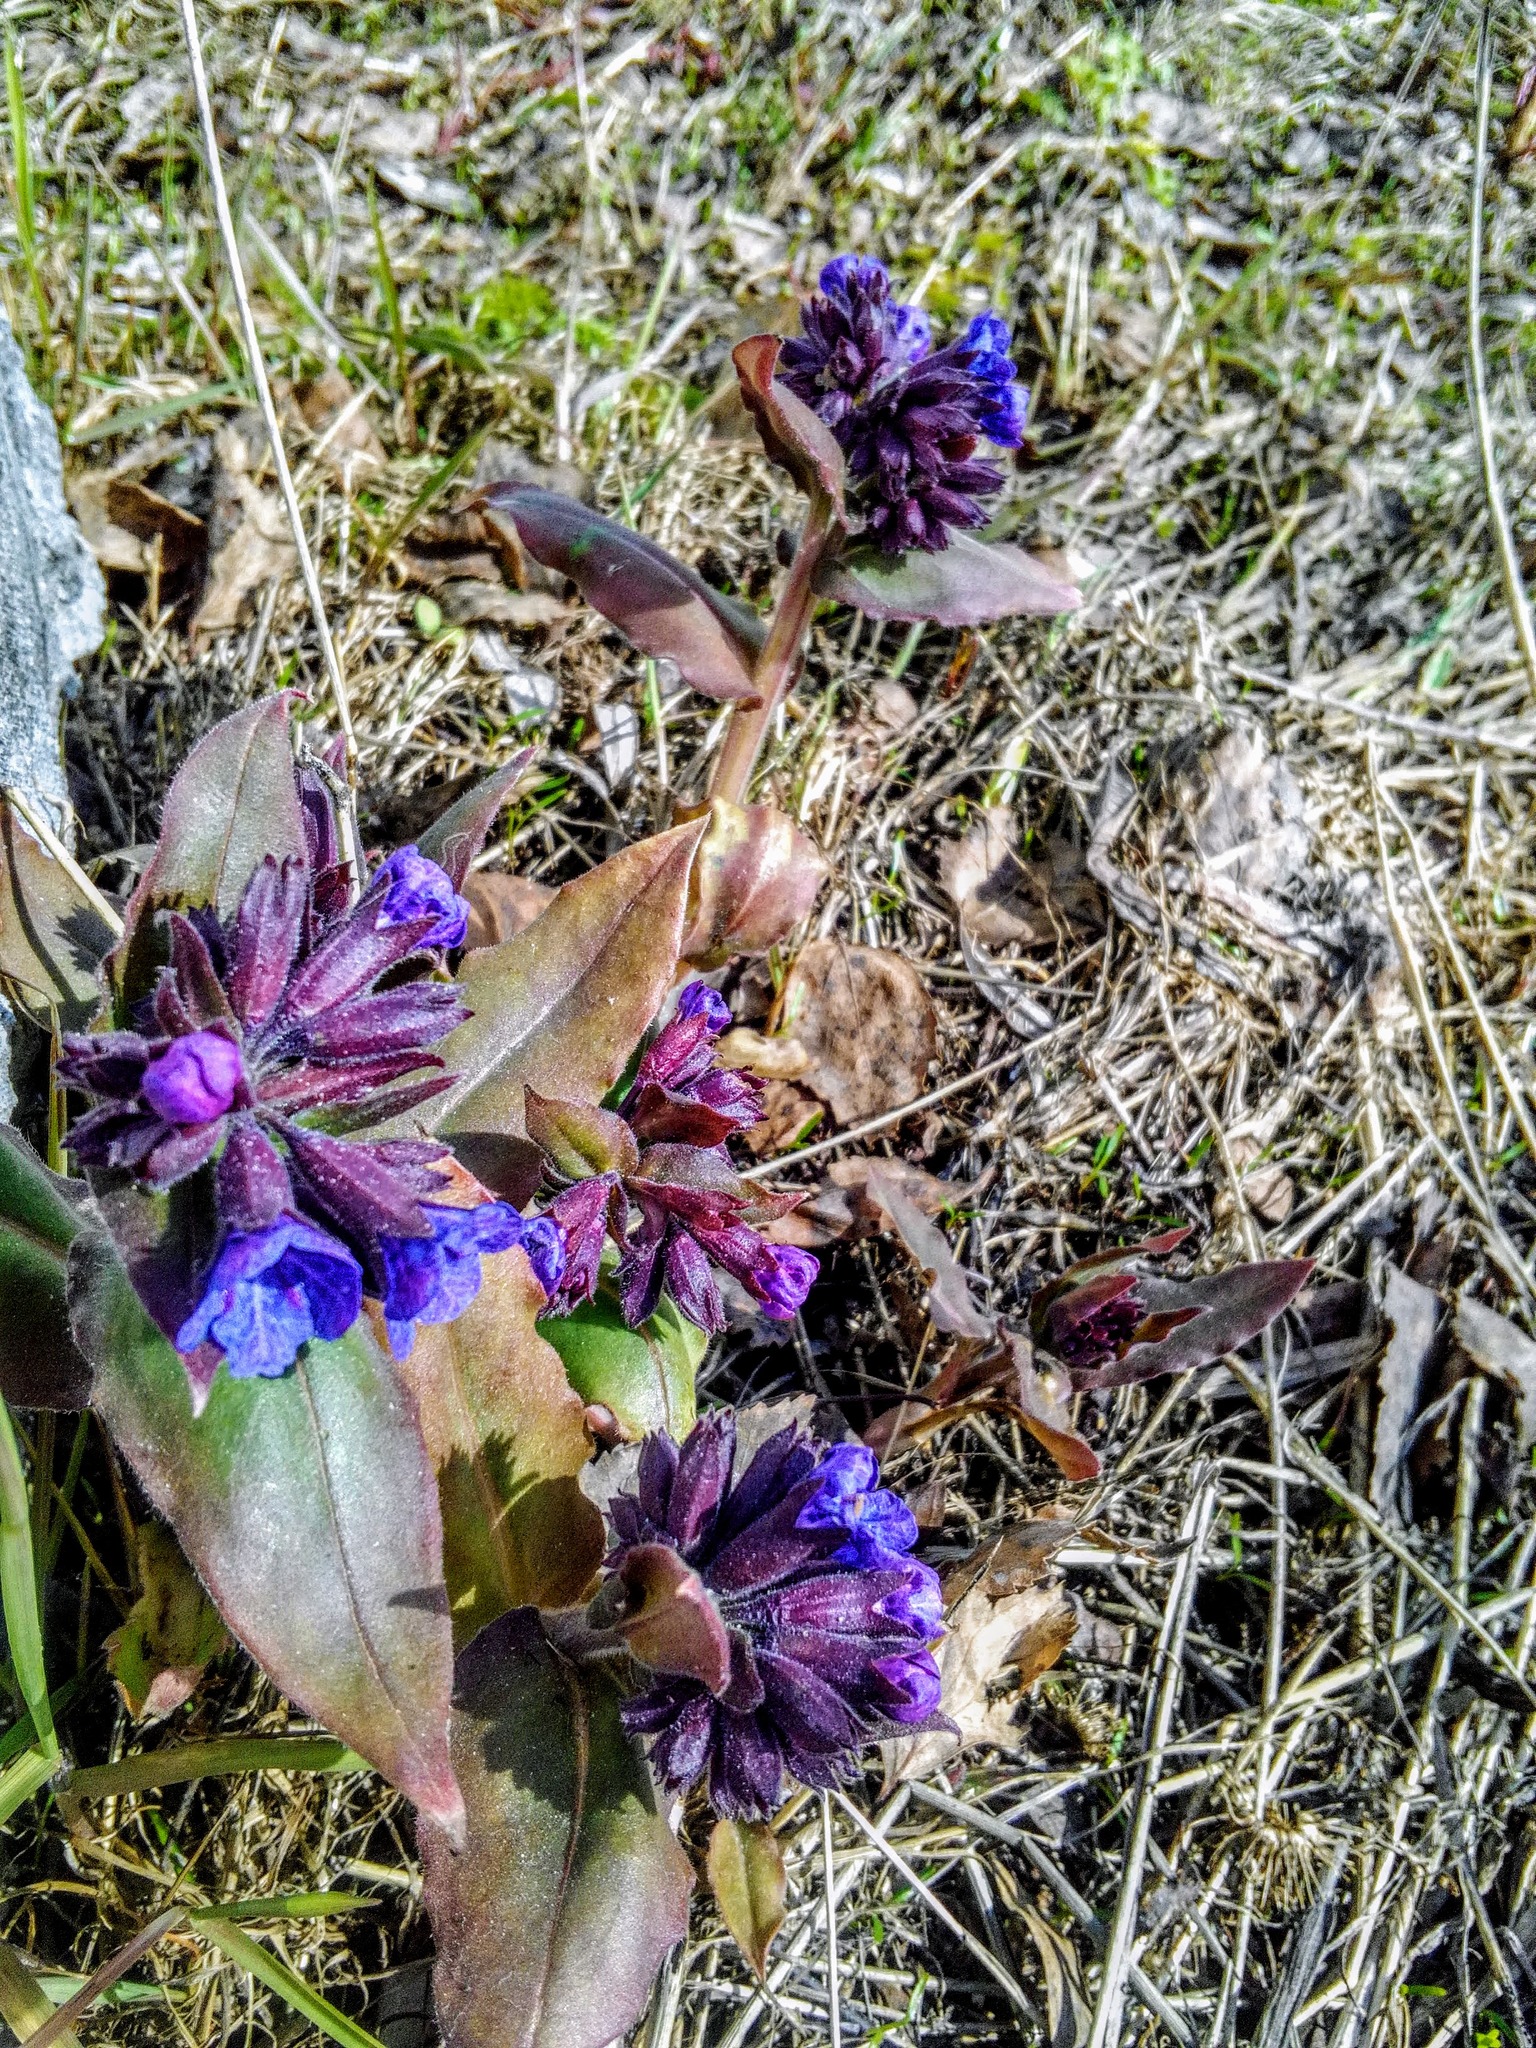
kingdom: Plantae
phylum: Tracheophyta
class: Magnoliopsida
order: Boraginales
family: Boraginaceae
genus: Pulmonaria
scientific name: Pulmonaria mollis
